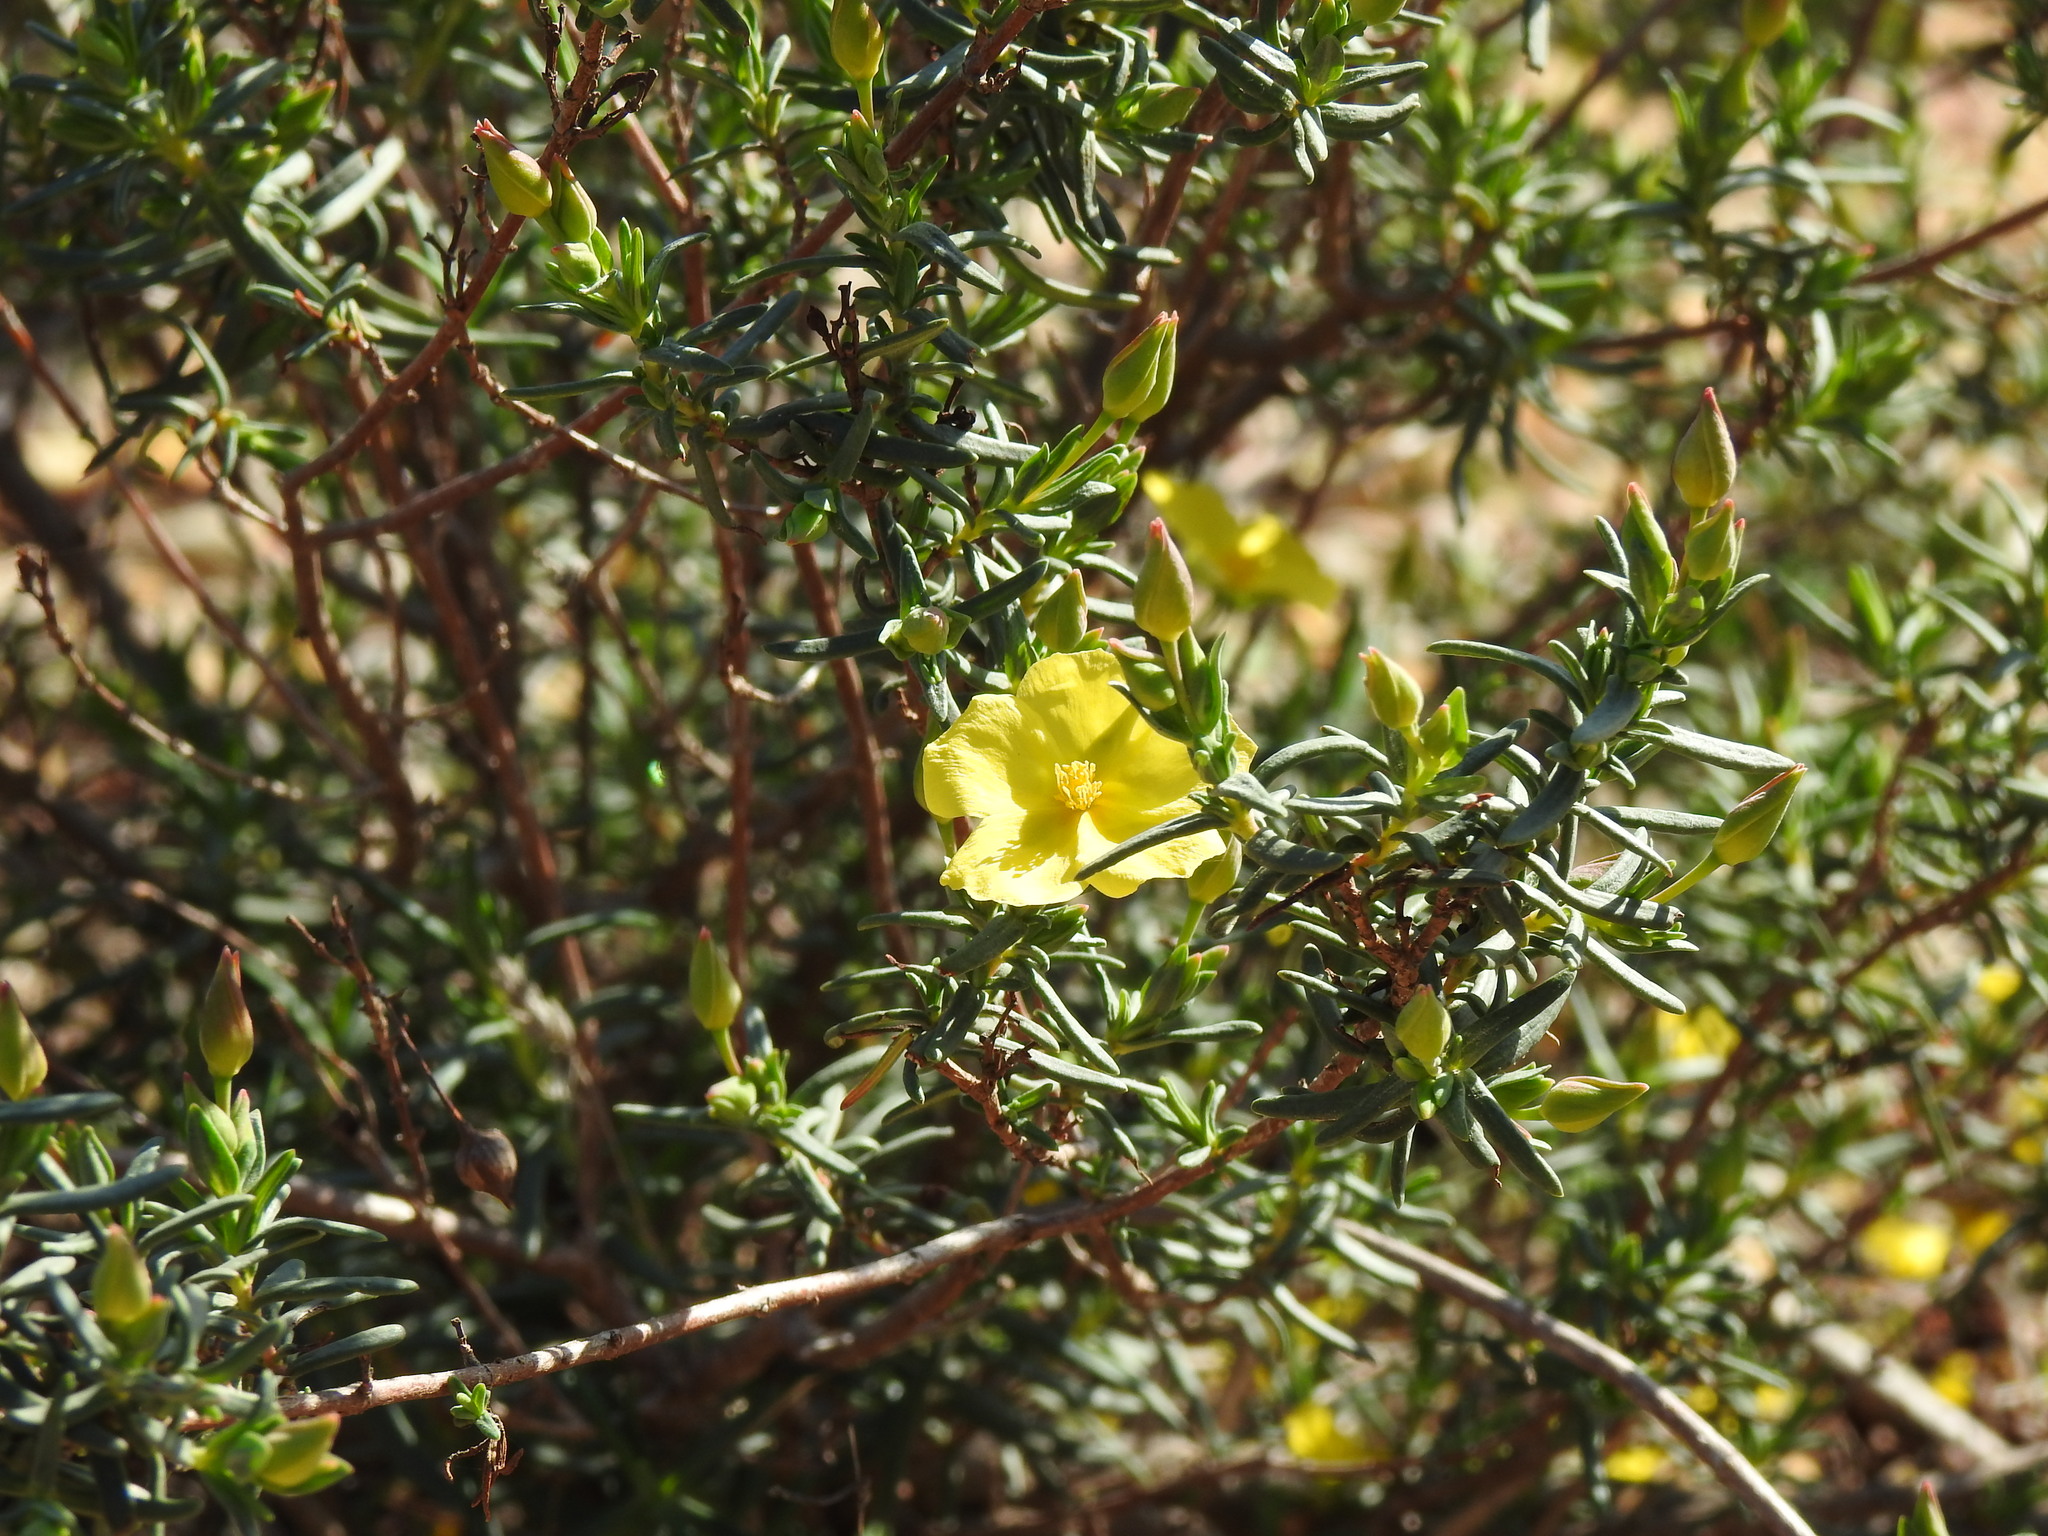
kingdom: Plantae
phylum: Tracheophyta
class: Magnoliopsida
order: Malvales
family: Cistaceae
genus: Halimium
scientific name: Halimium calycinum
